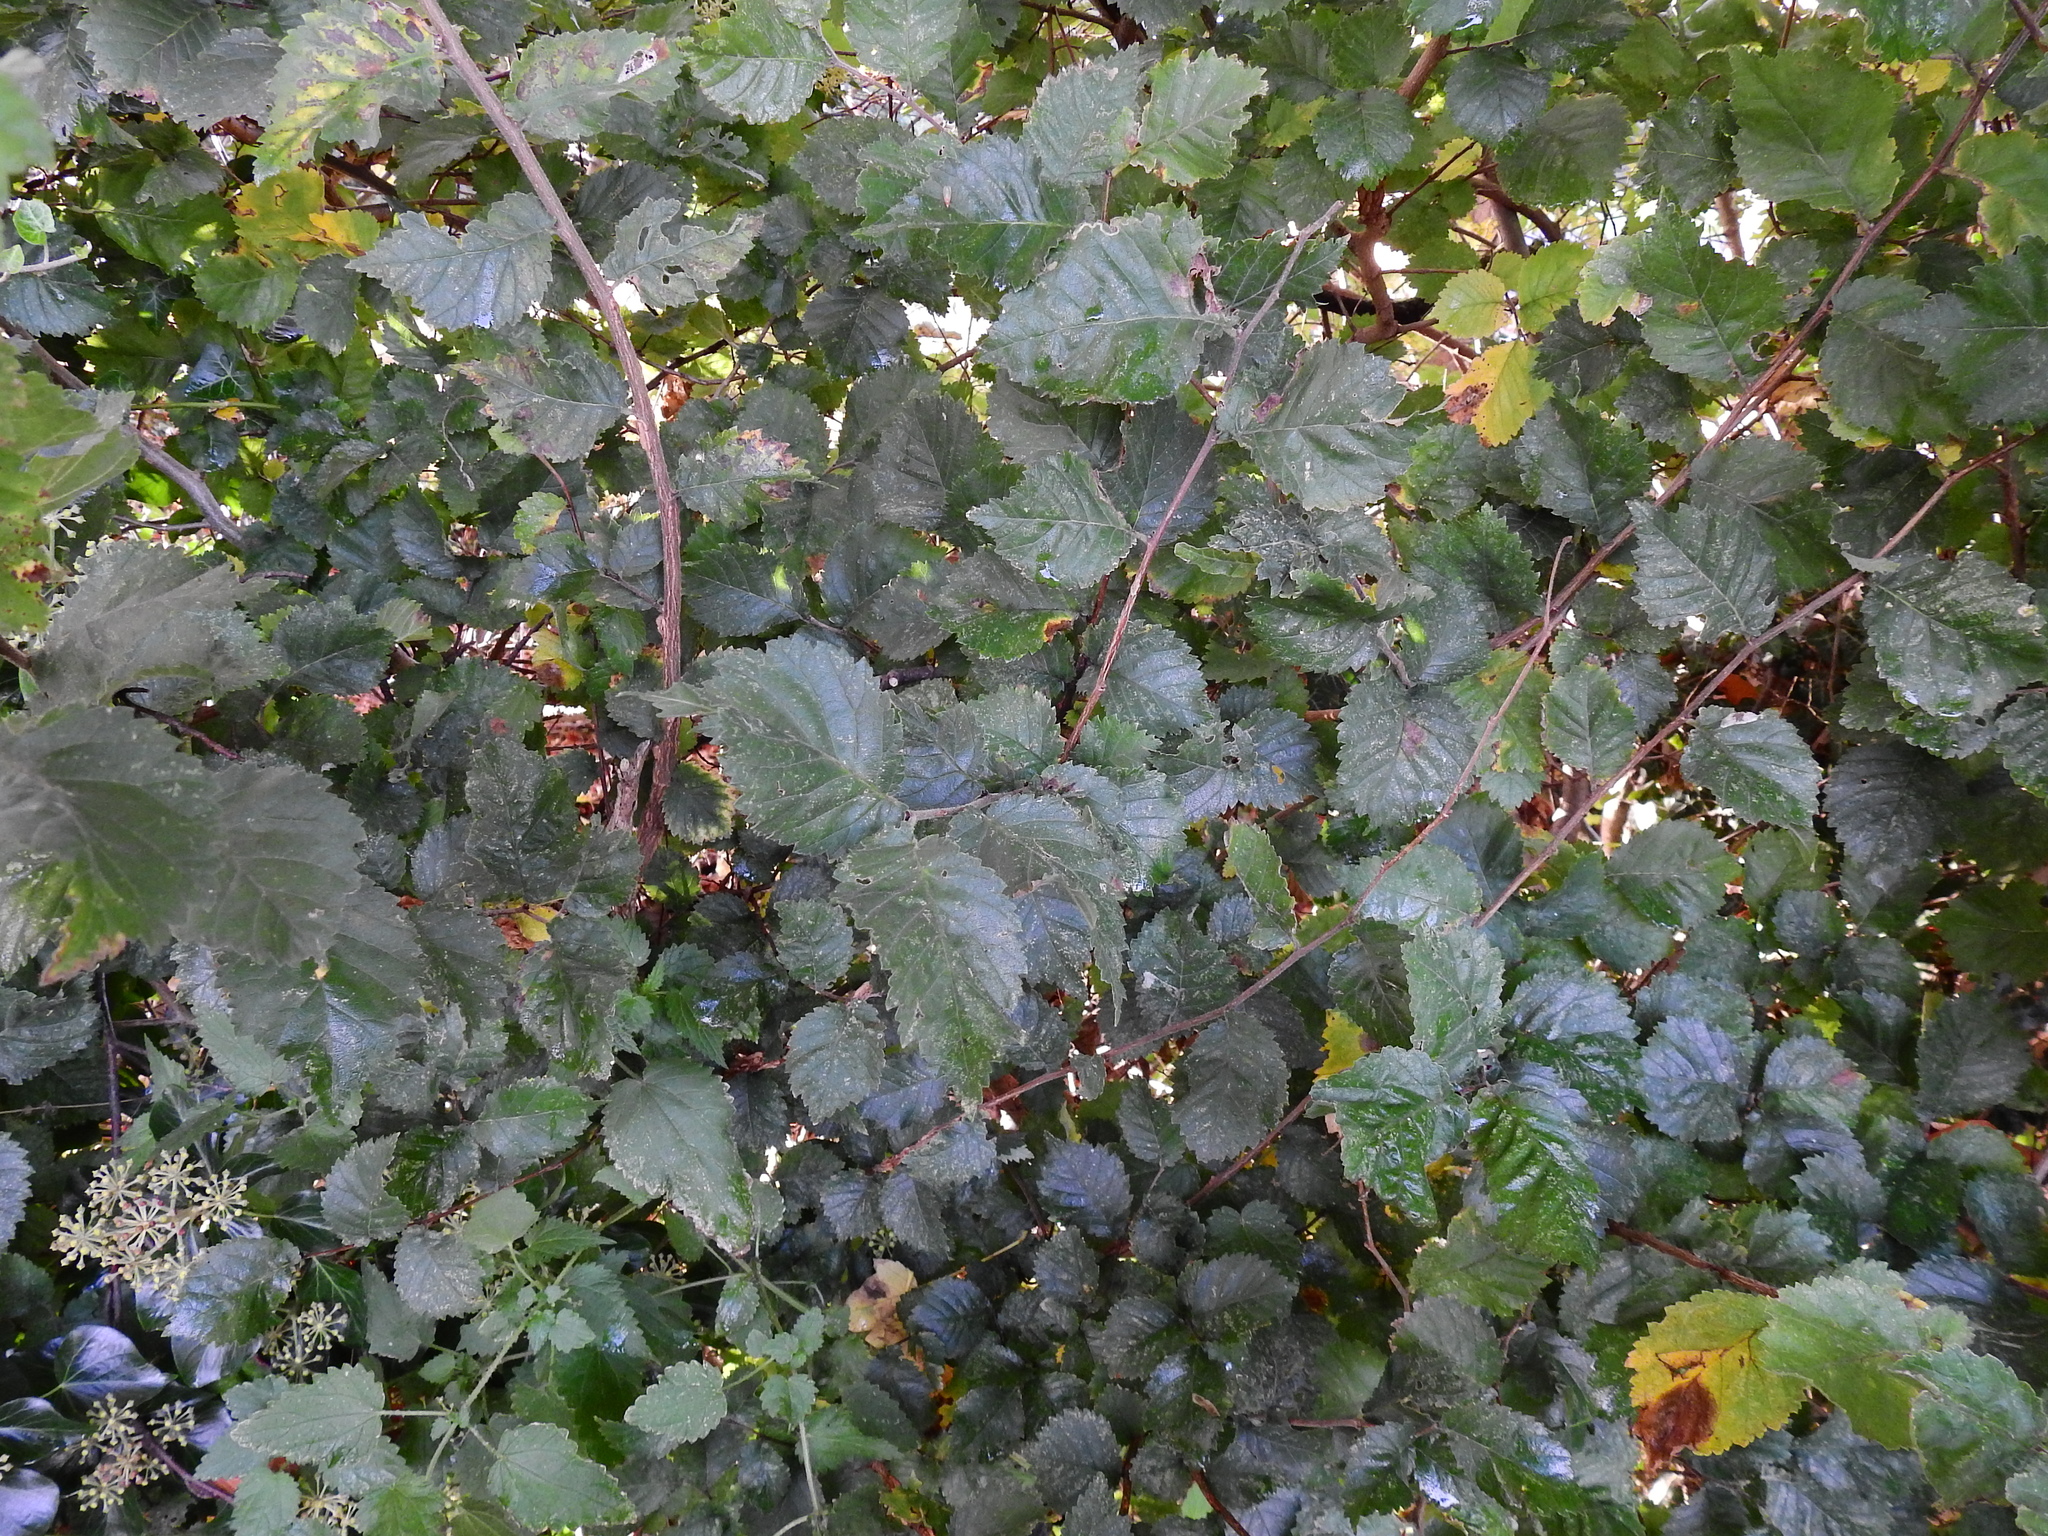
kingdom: Plantae
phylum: Tracheophyta
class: Magnoliopsida
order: Rosales
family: Ulmaceae
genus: Ulmus
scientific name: Ulmus minor
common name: Small-leaved elm
